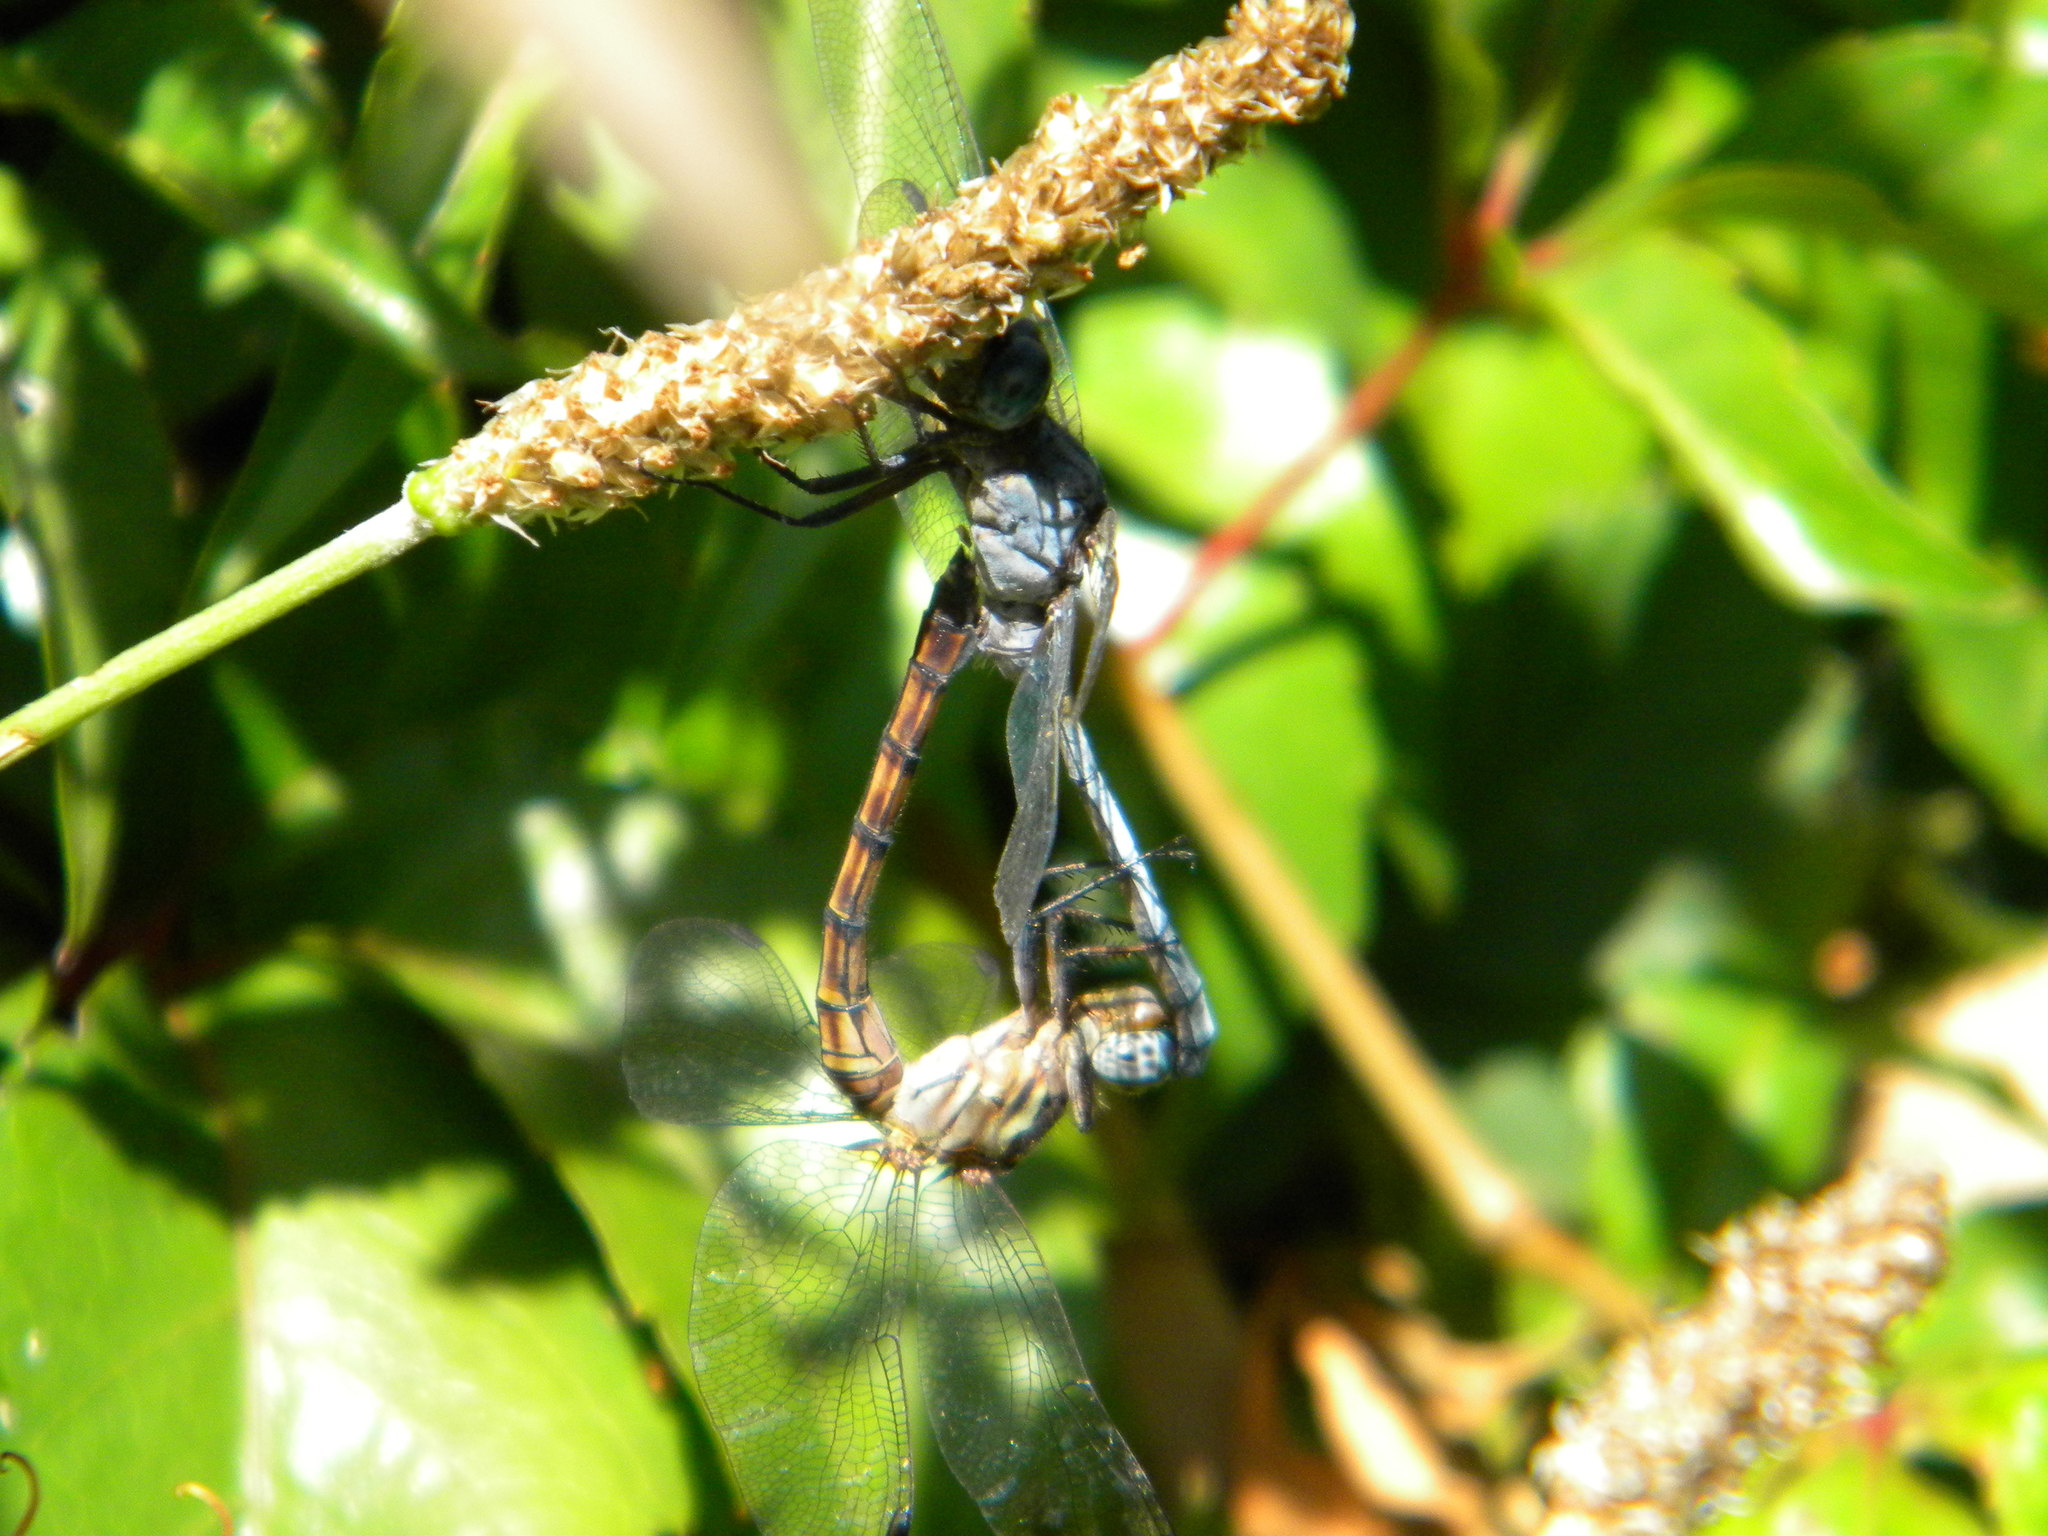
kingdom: Animalia
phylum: Arthropoda
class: Insecta
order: Odonata
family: Libellulidae
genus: Orthetrum
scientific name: Orthetrum julia
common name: Julia skimmer
